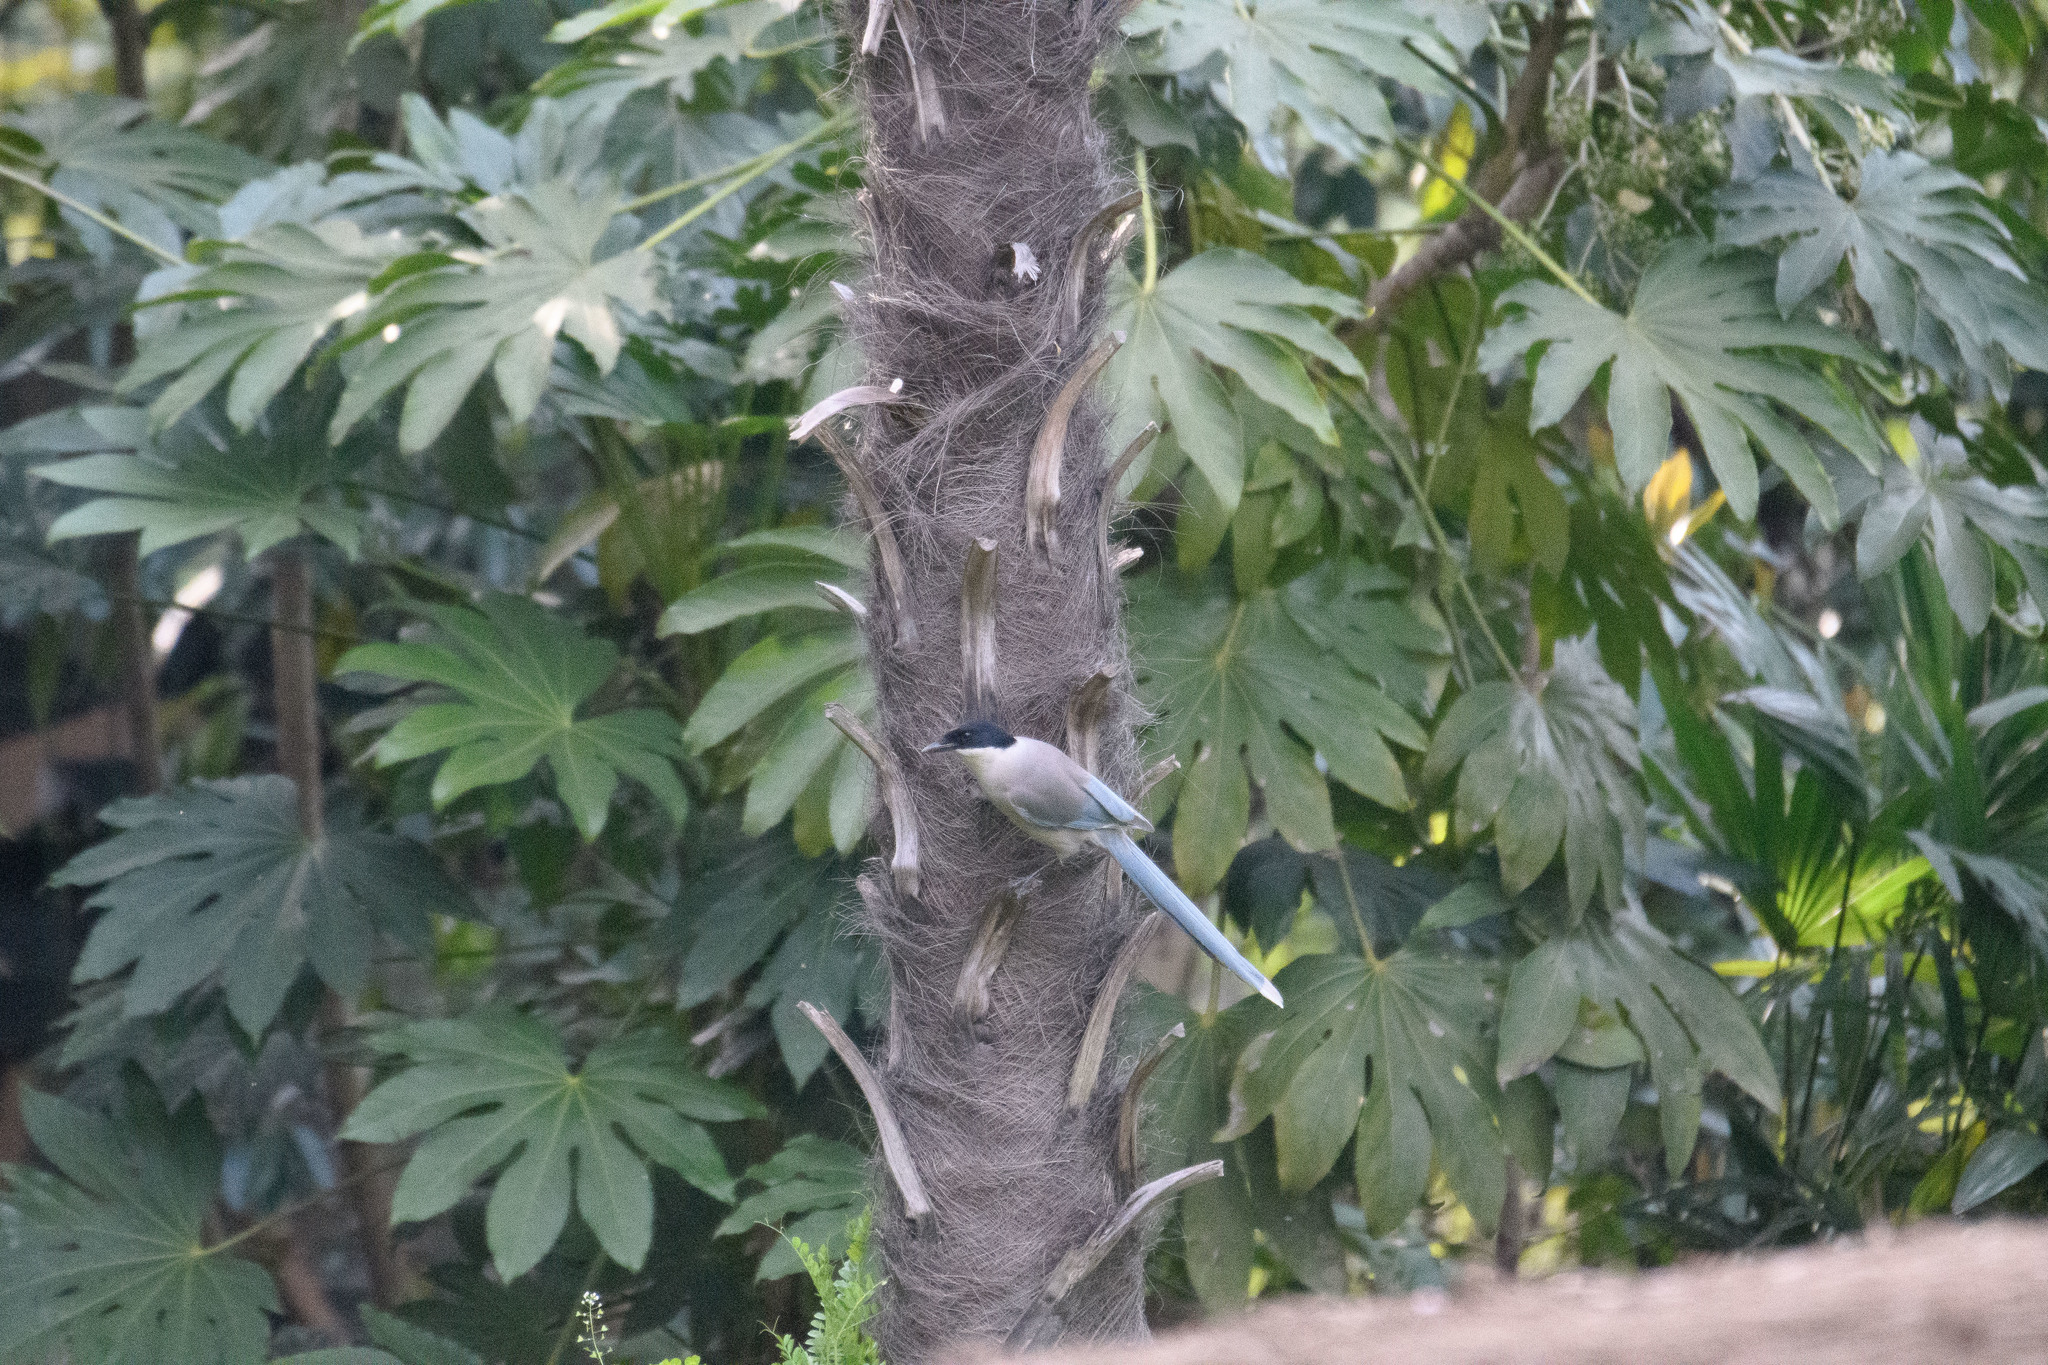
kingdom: Animalia
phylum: Chordata
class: Aves
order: Passeriformes
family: Corvidae
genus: Cyanopica
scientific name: Cyanopica cyanus
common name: Azure-winged magpie
